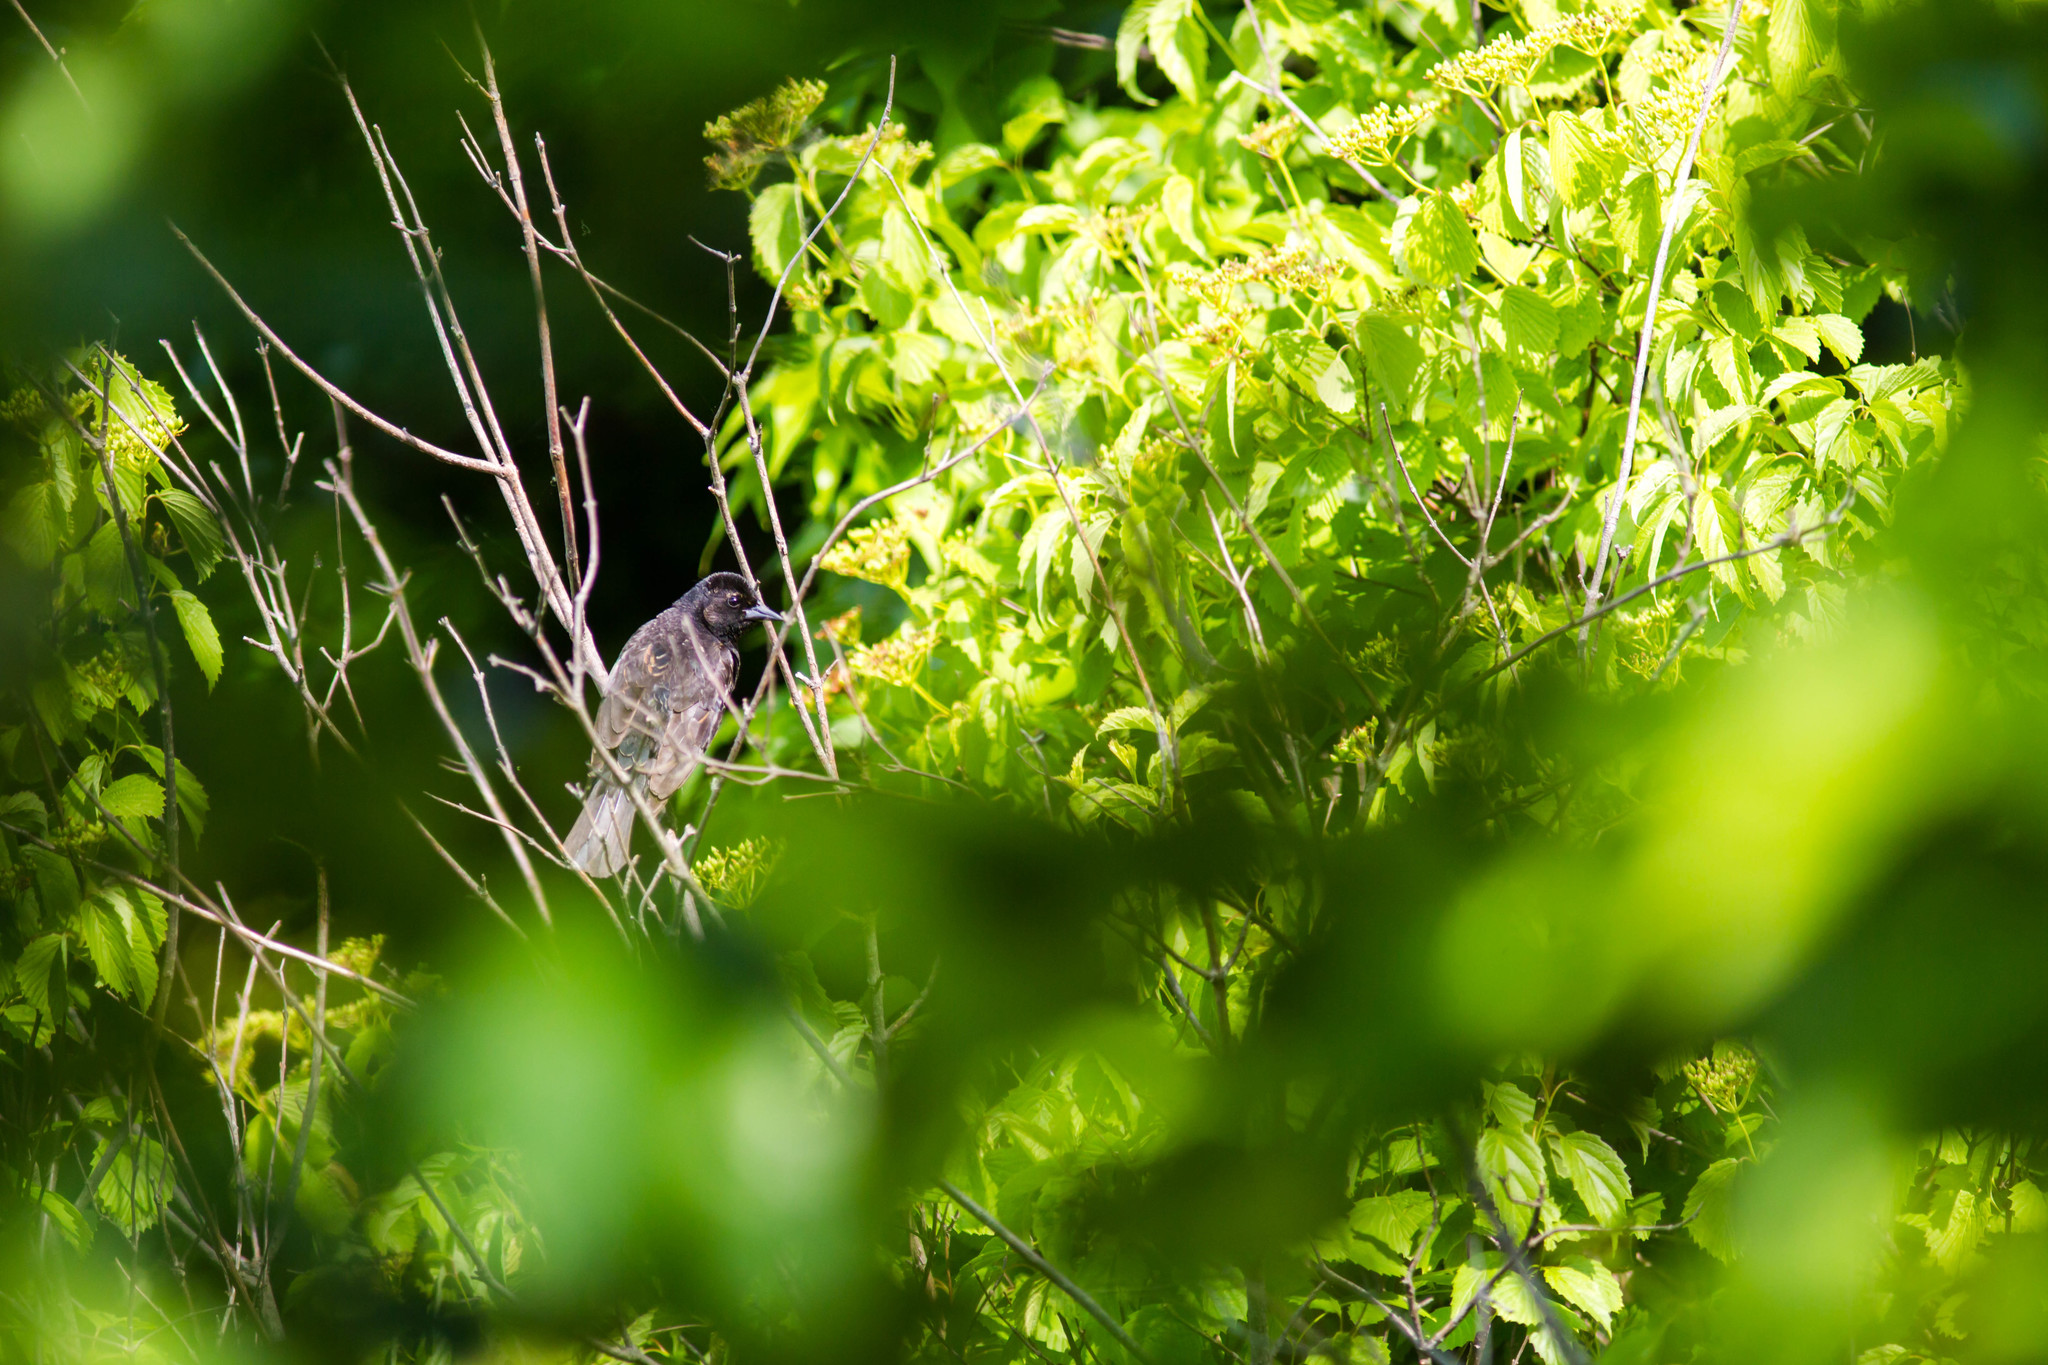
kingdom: Animalia
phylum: Chordata
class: Aves
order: Passeriformes
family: Icteridae
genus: Agelaius
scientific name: Agelaius phoeniceus
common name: Red-winged blackbird
